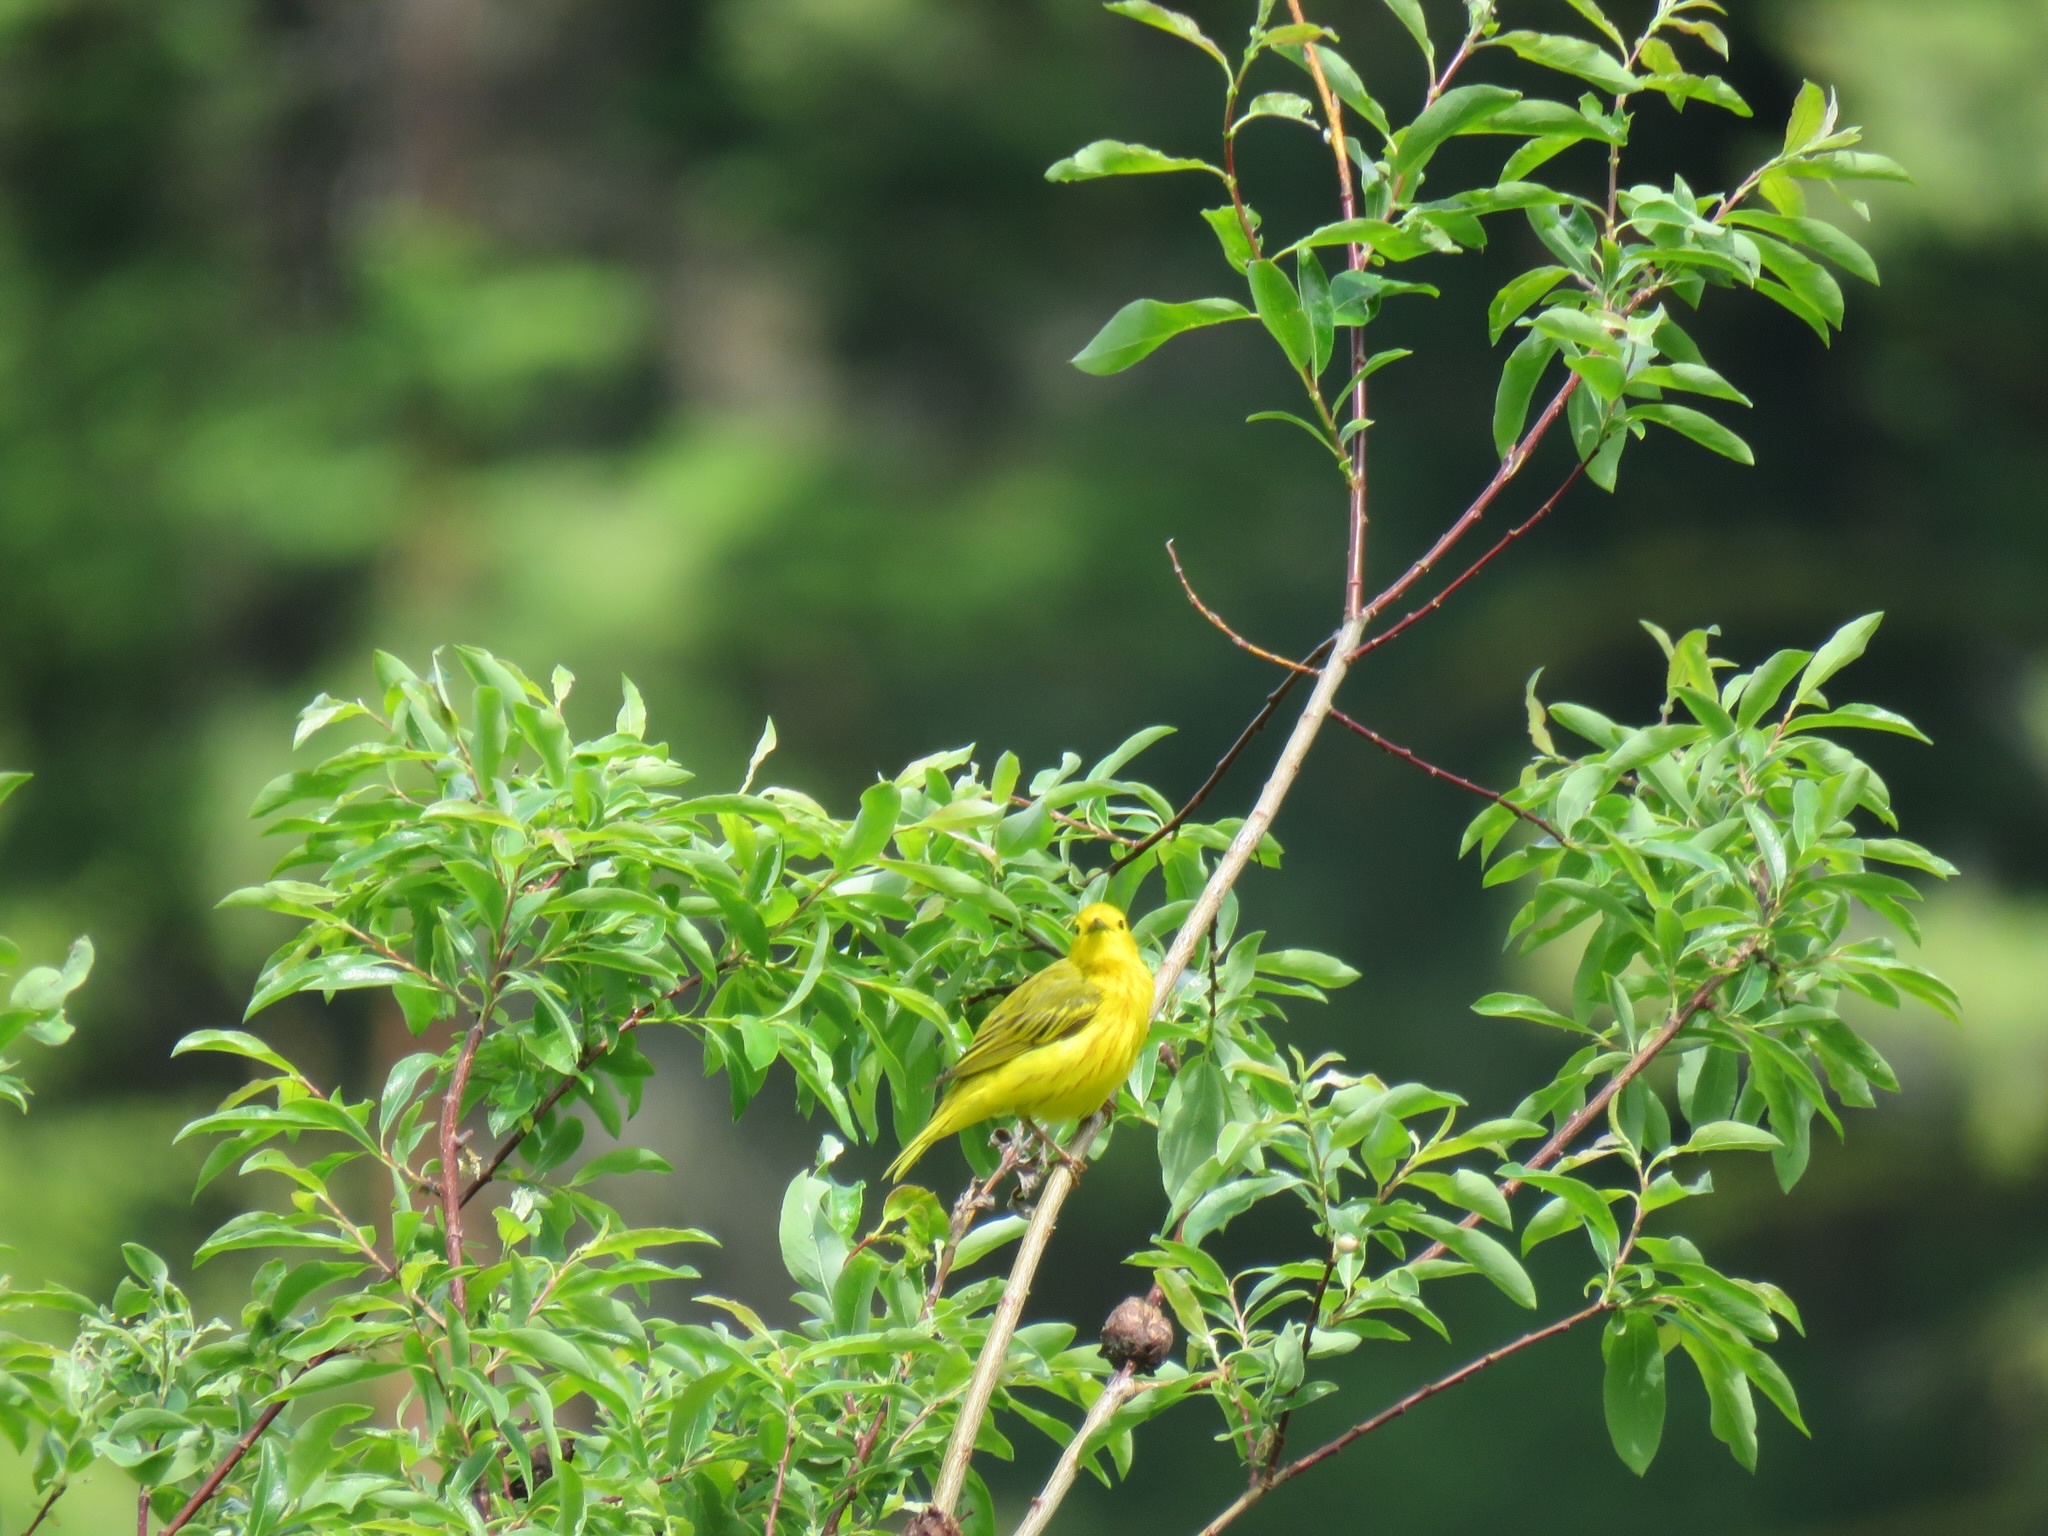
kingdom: Animalia
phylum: Chordata
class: Aves
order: Passeriformes
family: Parulidae
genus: Setophaga
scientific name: Setophaga petechia
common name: Yellow warbler
